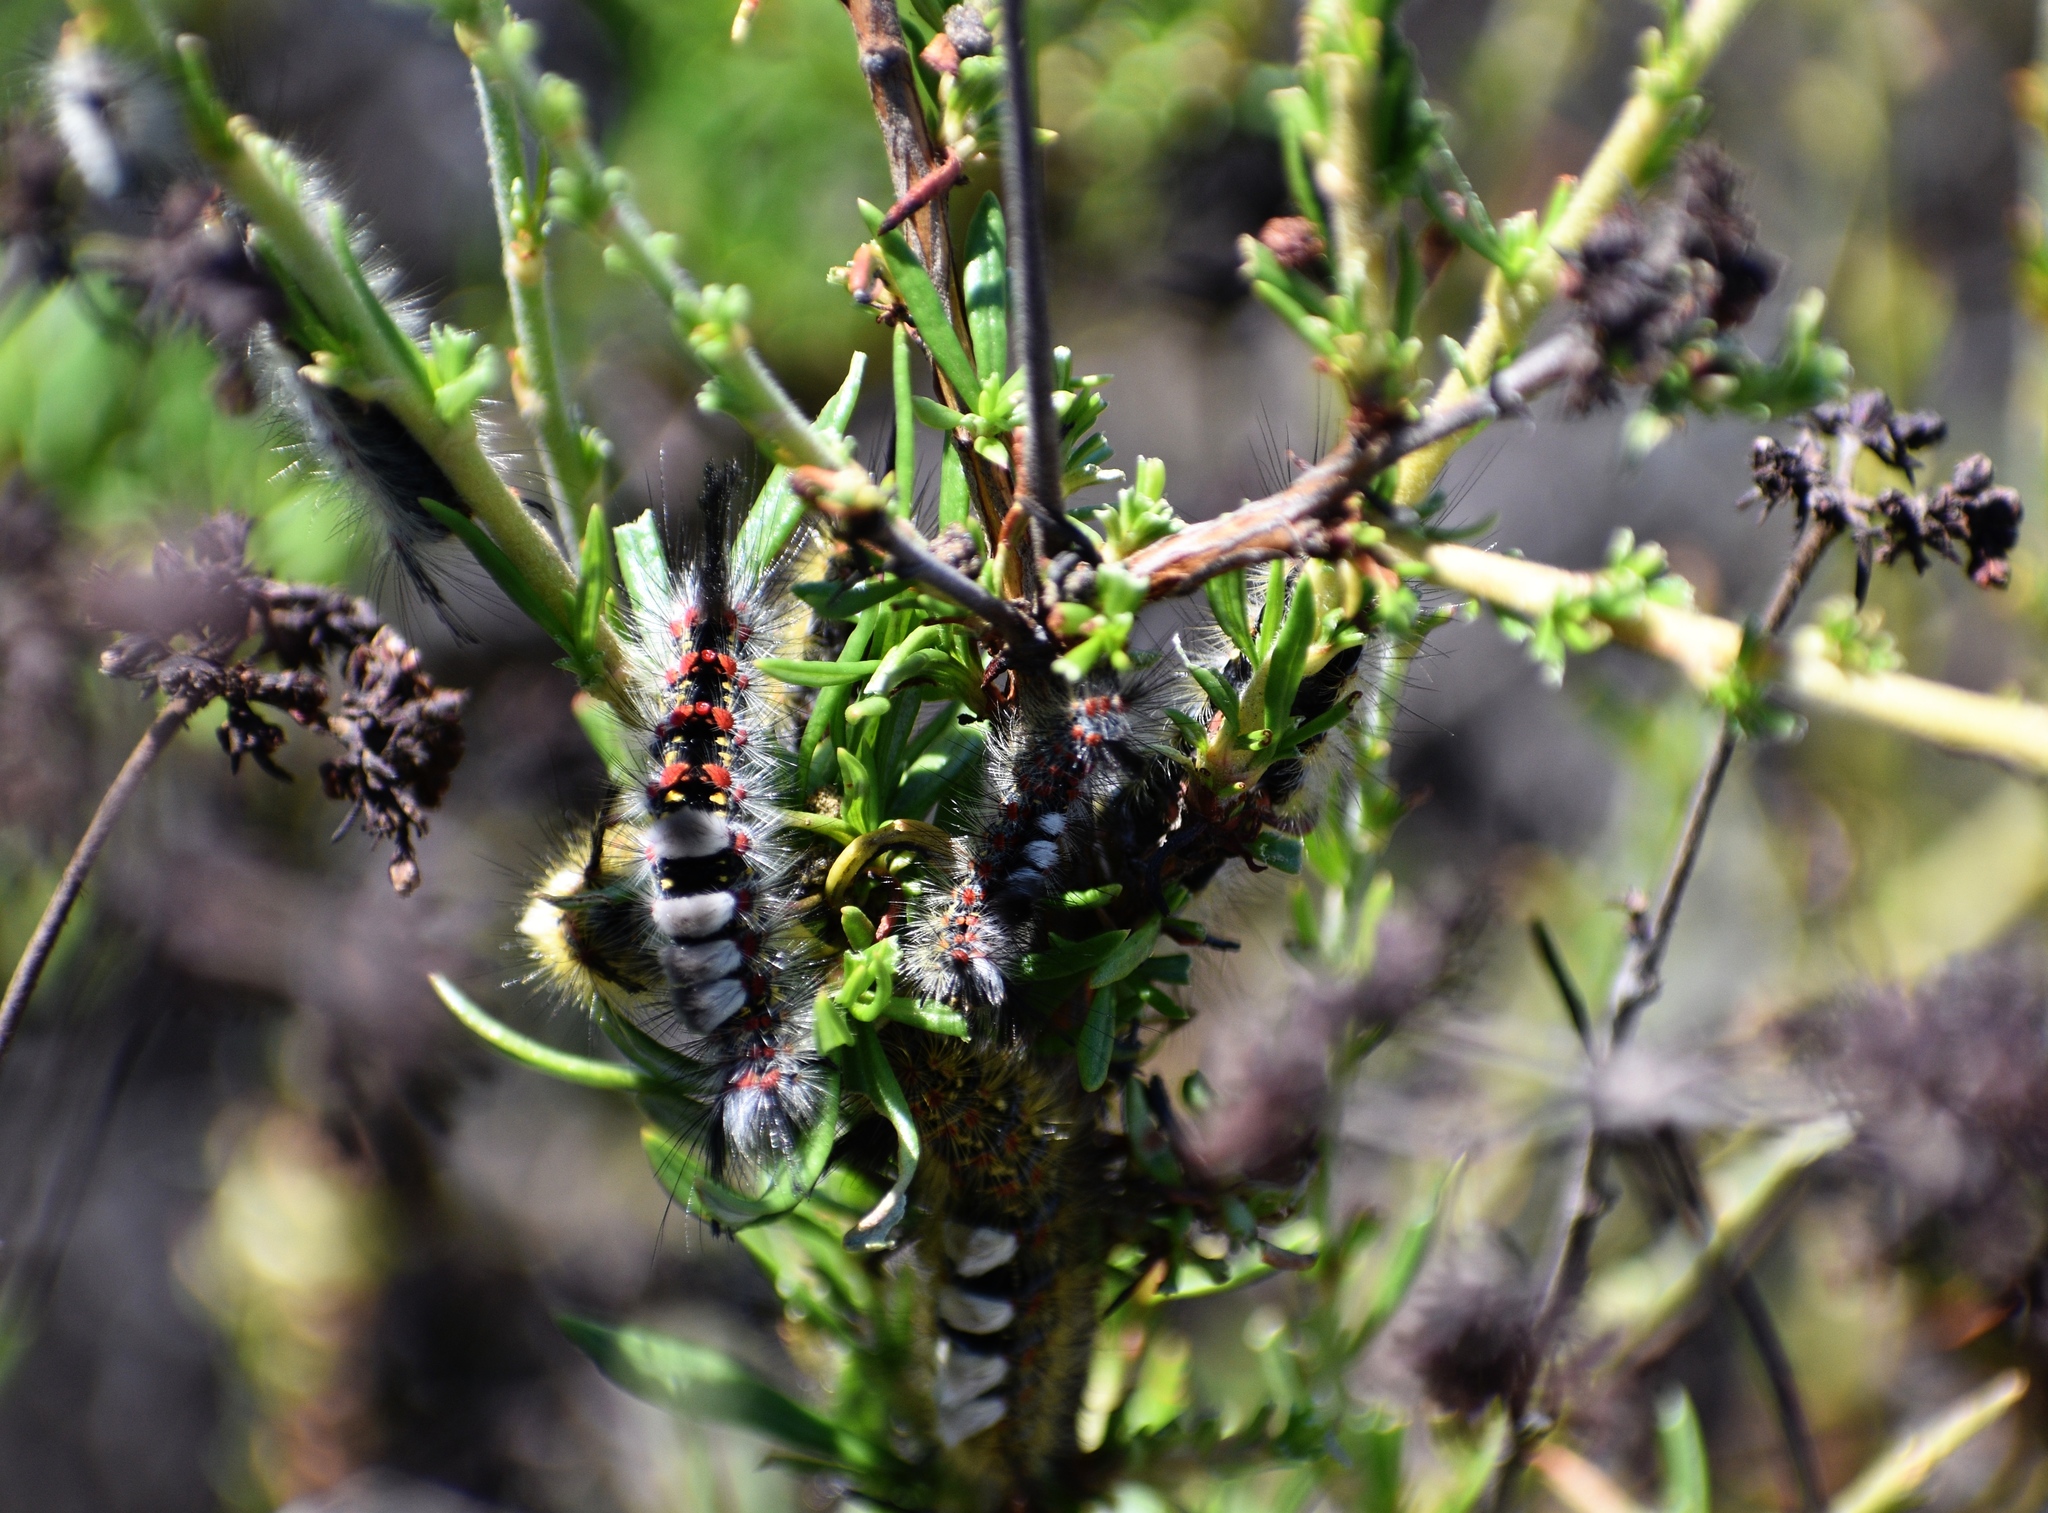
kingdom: Animalia
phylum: Arthropoda
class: Insecta
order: Lepidoptera
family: Erebidae
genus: Orgyia
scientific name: Orgyia
